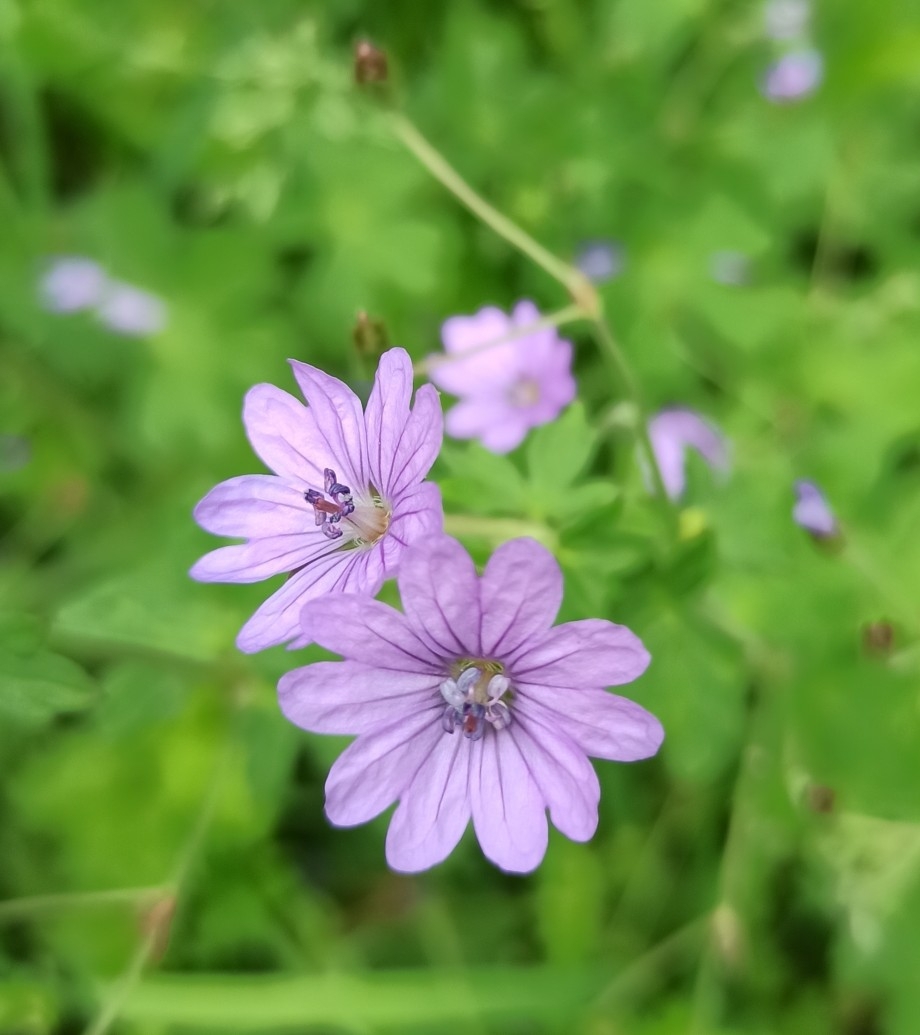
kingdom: Plantae
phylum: Tracheophyta
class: Magnoliopsida
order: Geraniales
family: Geraniaceae
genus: Geranium
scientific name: Geranium pyrenaicum
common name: Hedgerow crane's-bill
